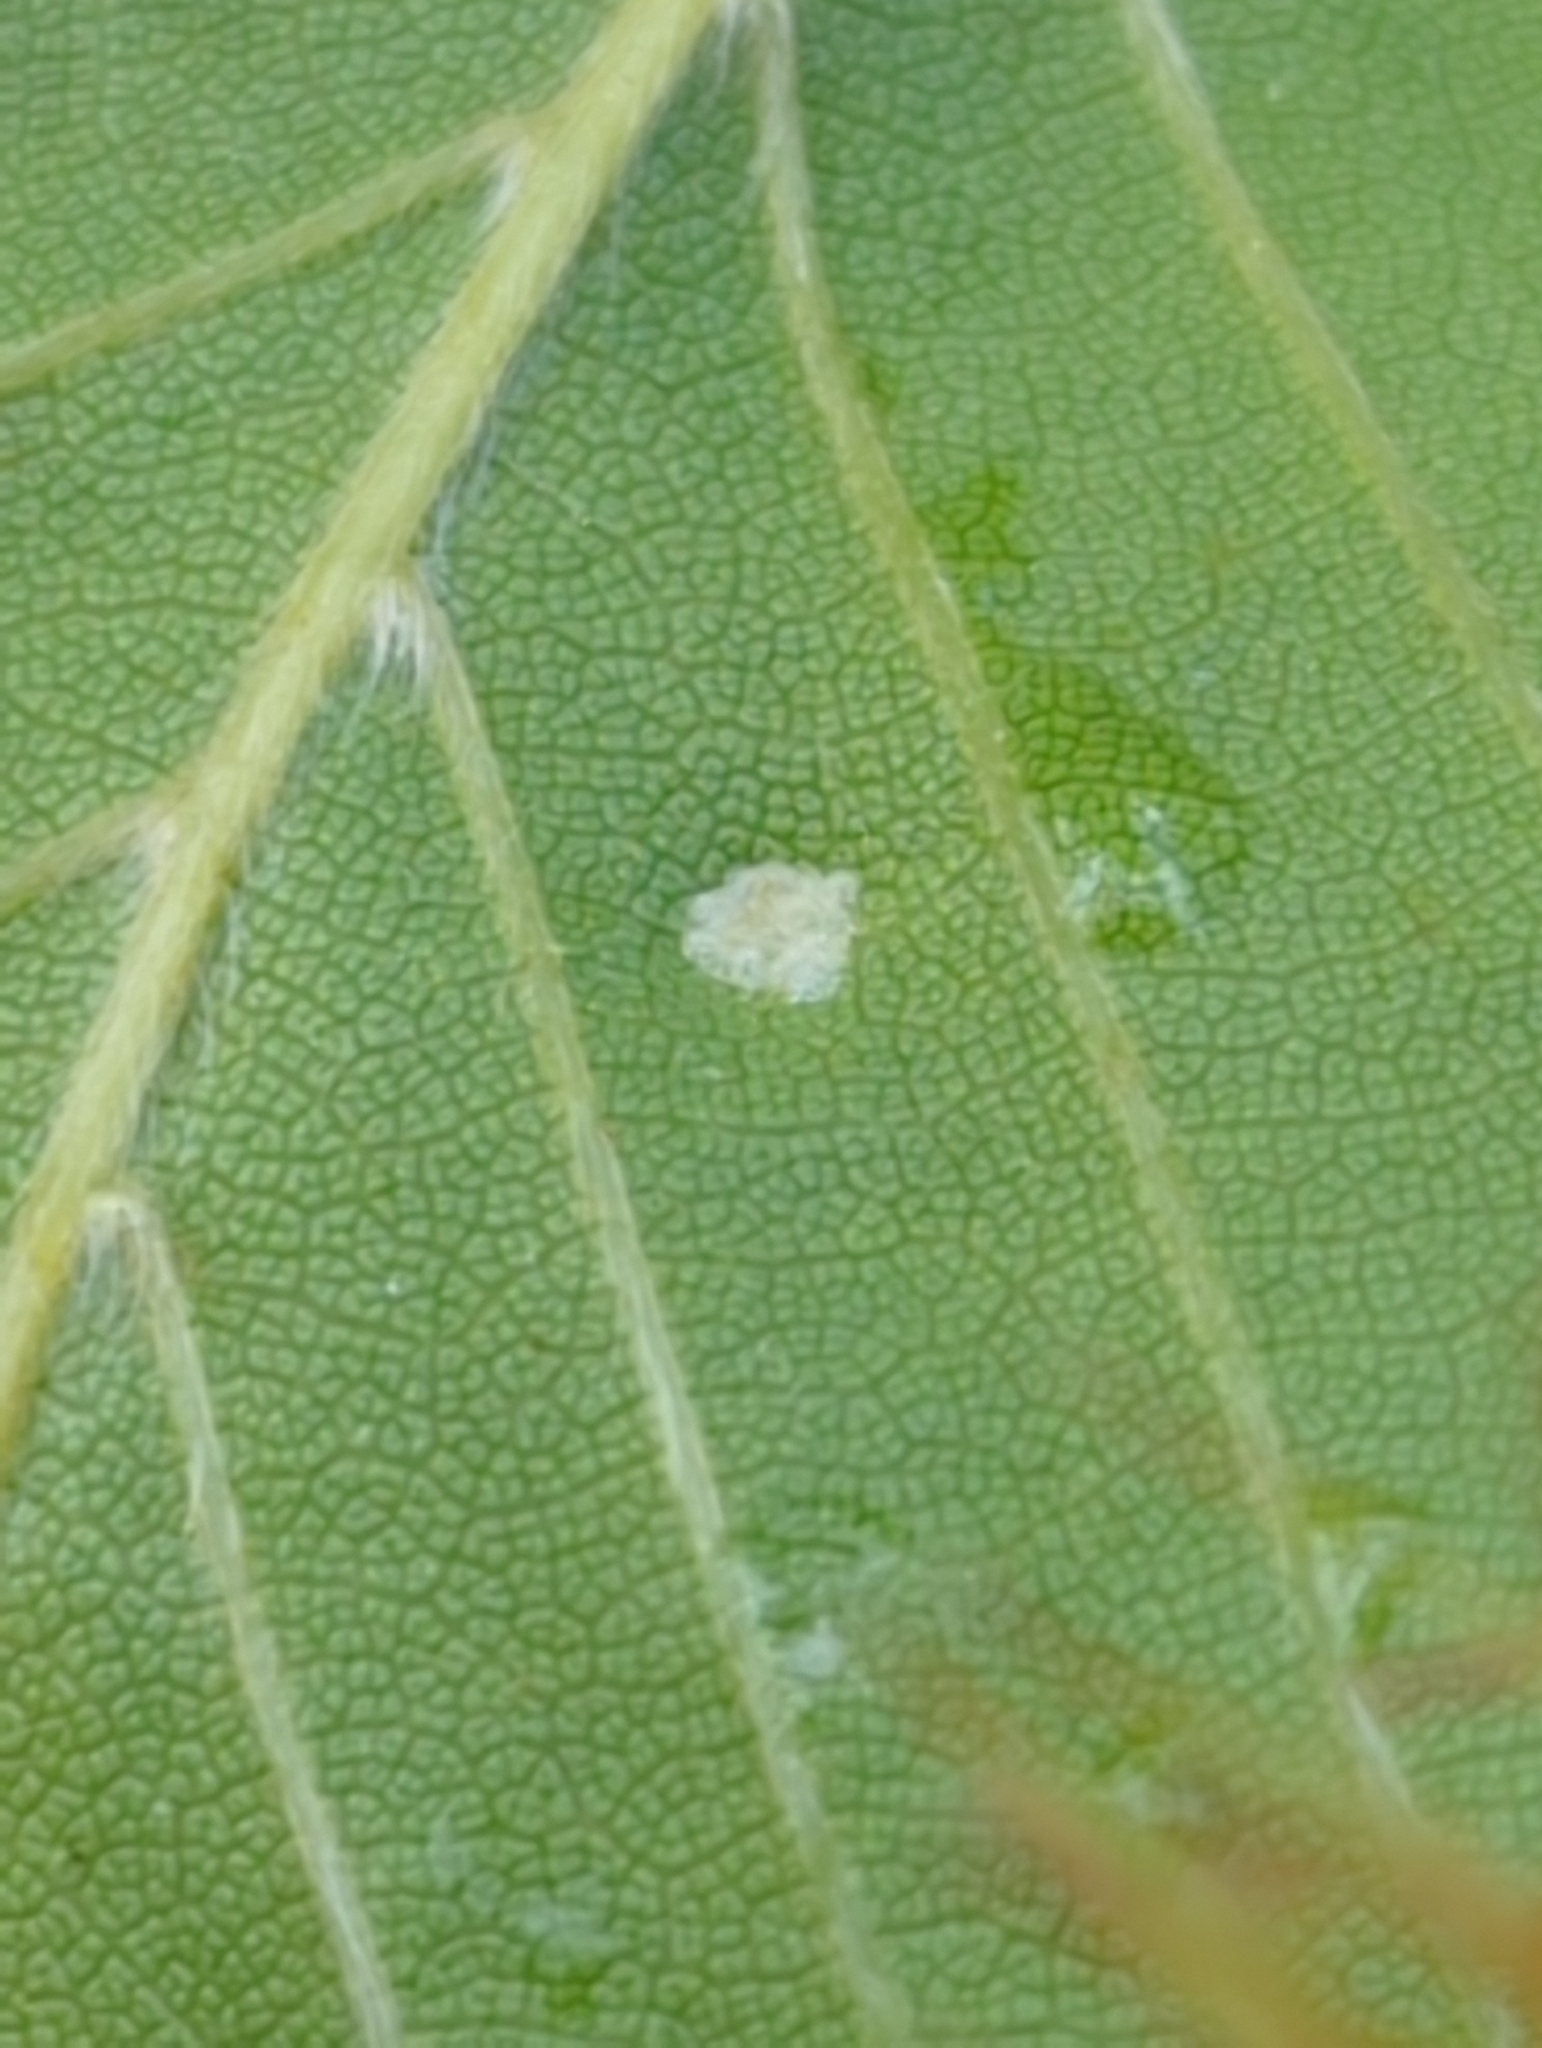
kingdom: Animalia
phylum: Arthropoda
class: Arachnida
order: Trombidiformes
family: Eriophyidae
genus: Acalitus
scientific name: Acalitus
